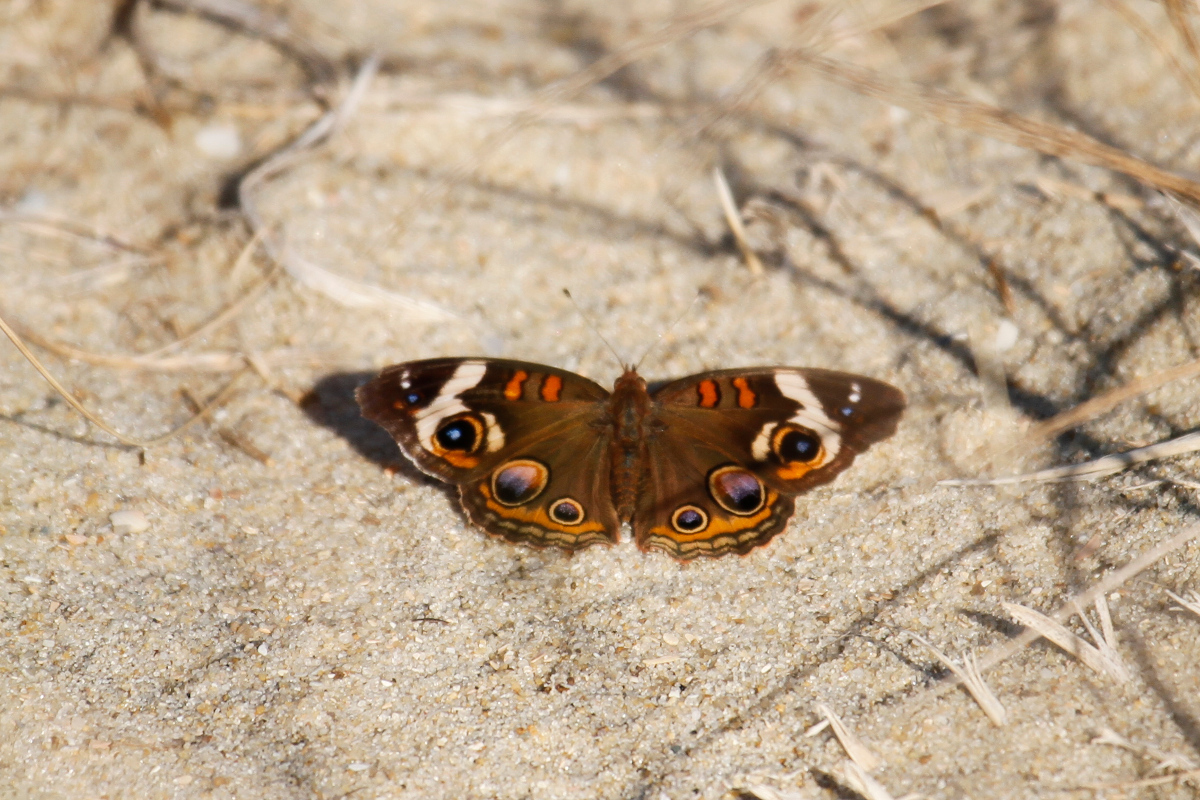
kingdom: Animalia
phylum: Arthropoda
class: Insecta
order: Lepidoptera
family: Nymphalidae
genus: Junonia
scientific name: Junonia coenia
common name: Common buckeye
